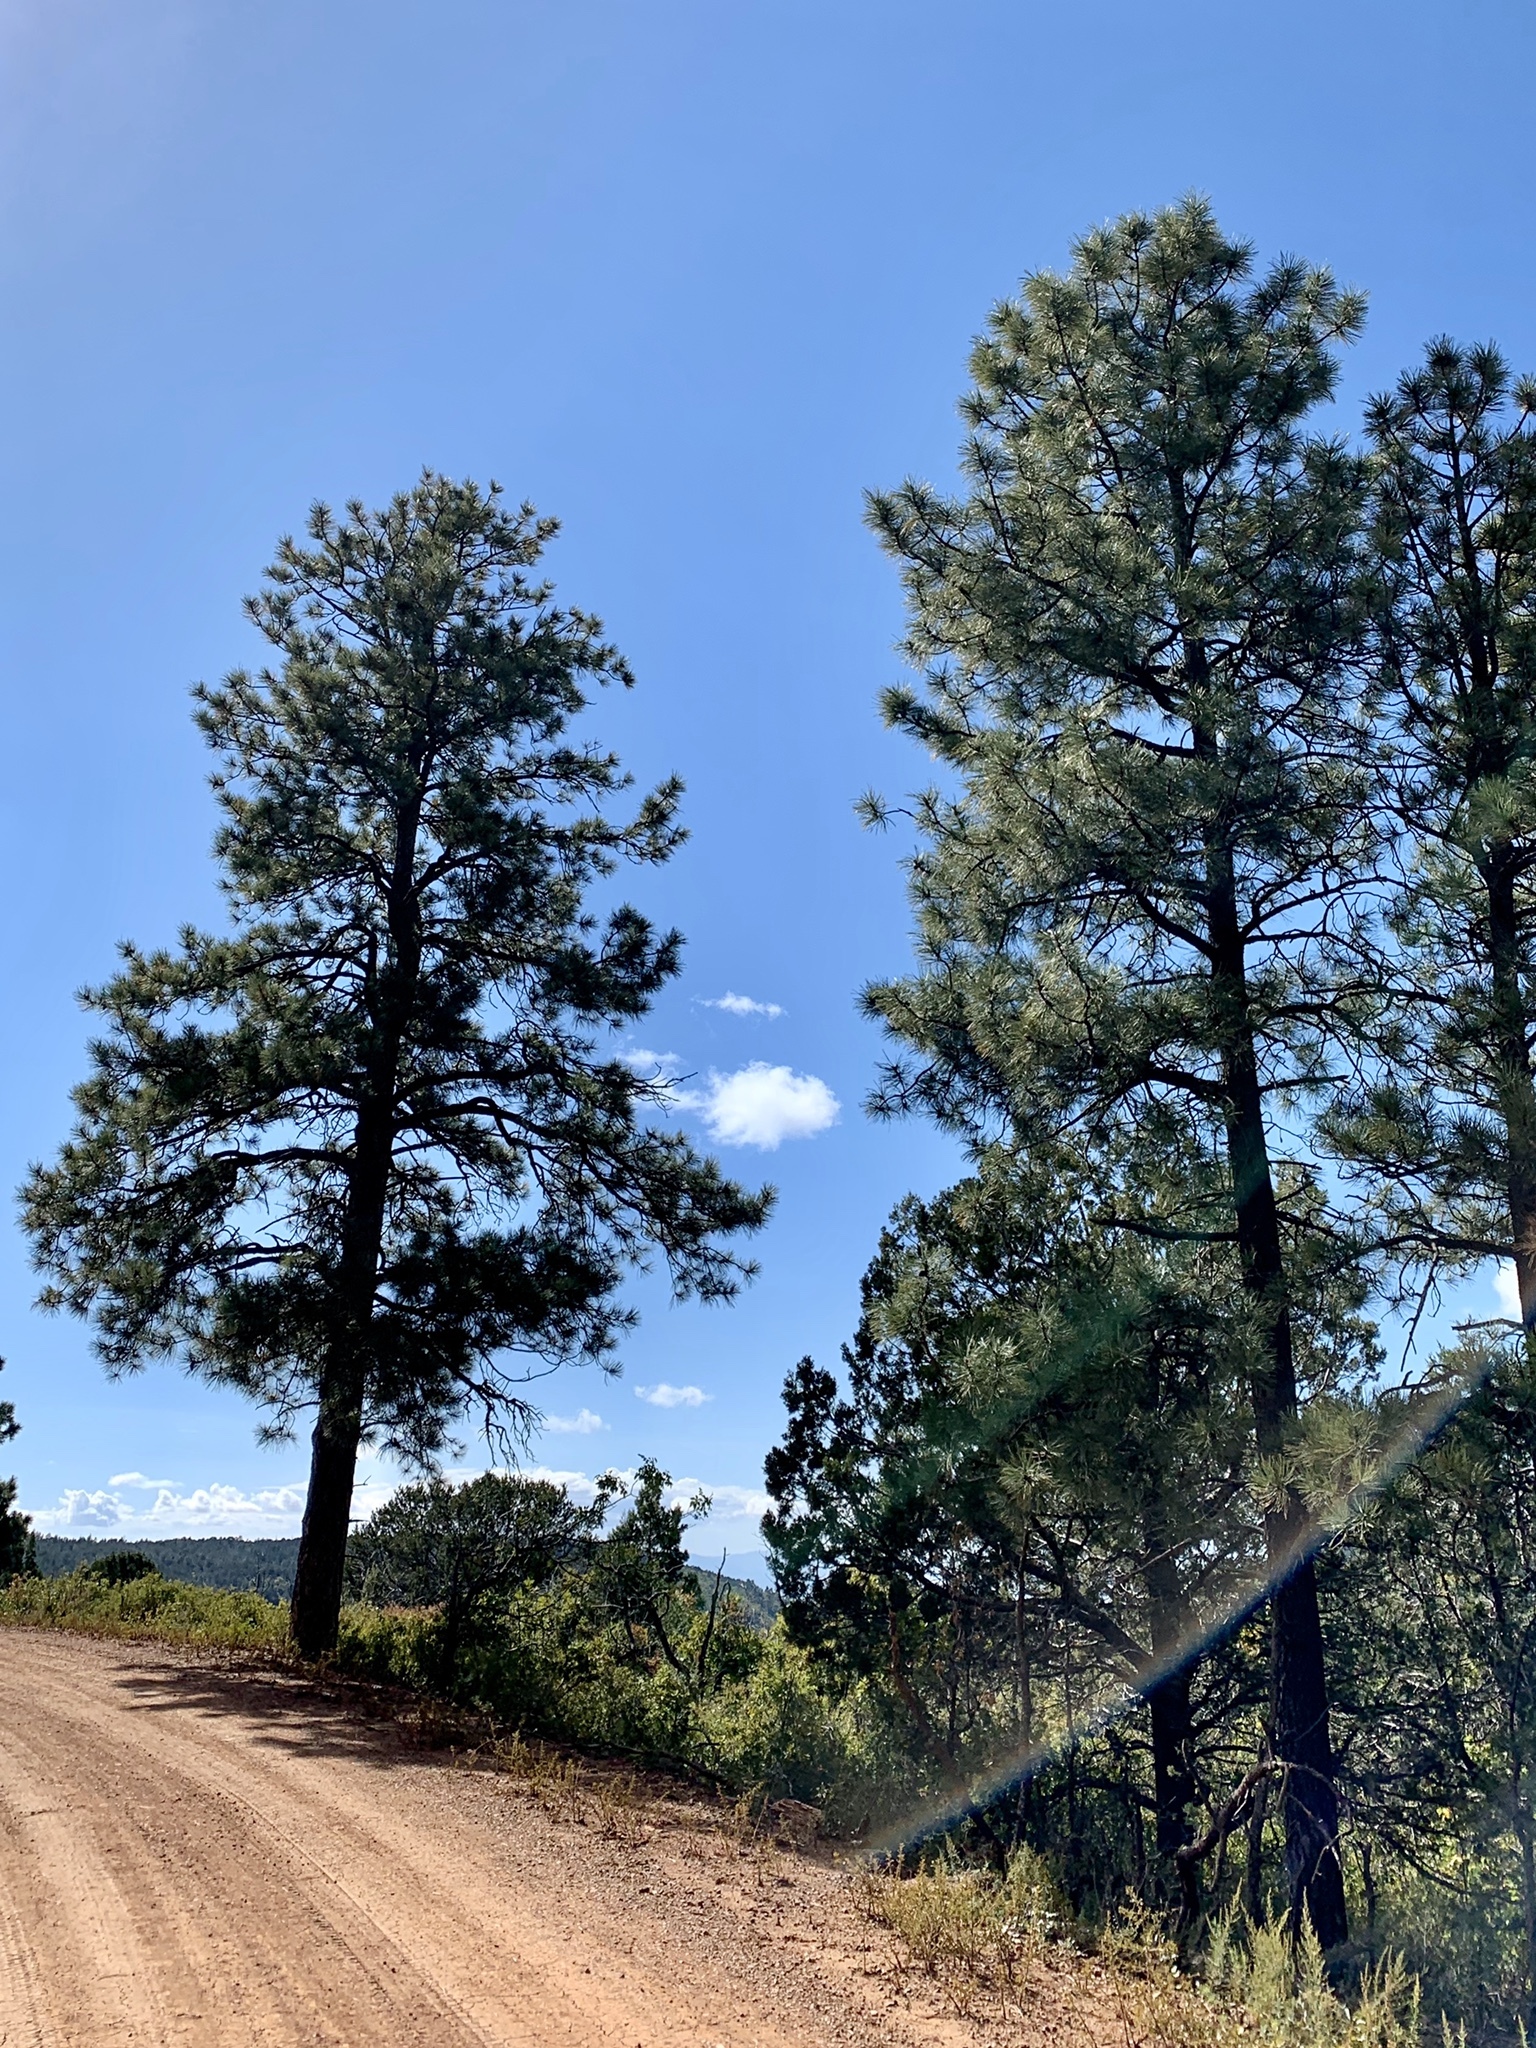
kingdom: Plantae
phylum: Tracheophyta
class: Pinopsida
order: Pinales
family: Pinaceae
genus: Pinus
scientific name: Pinus ponderosa
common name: Western yellow-pine
